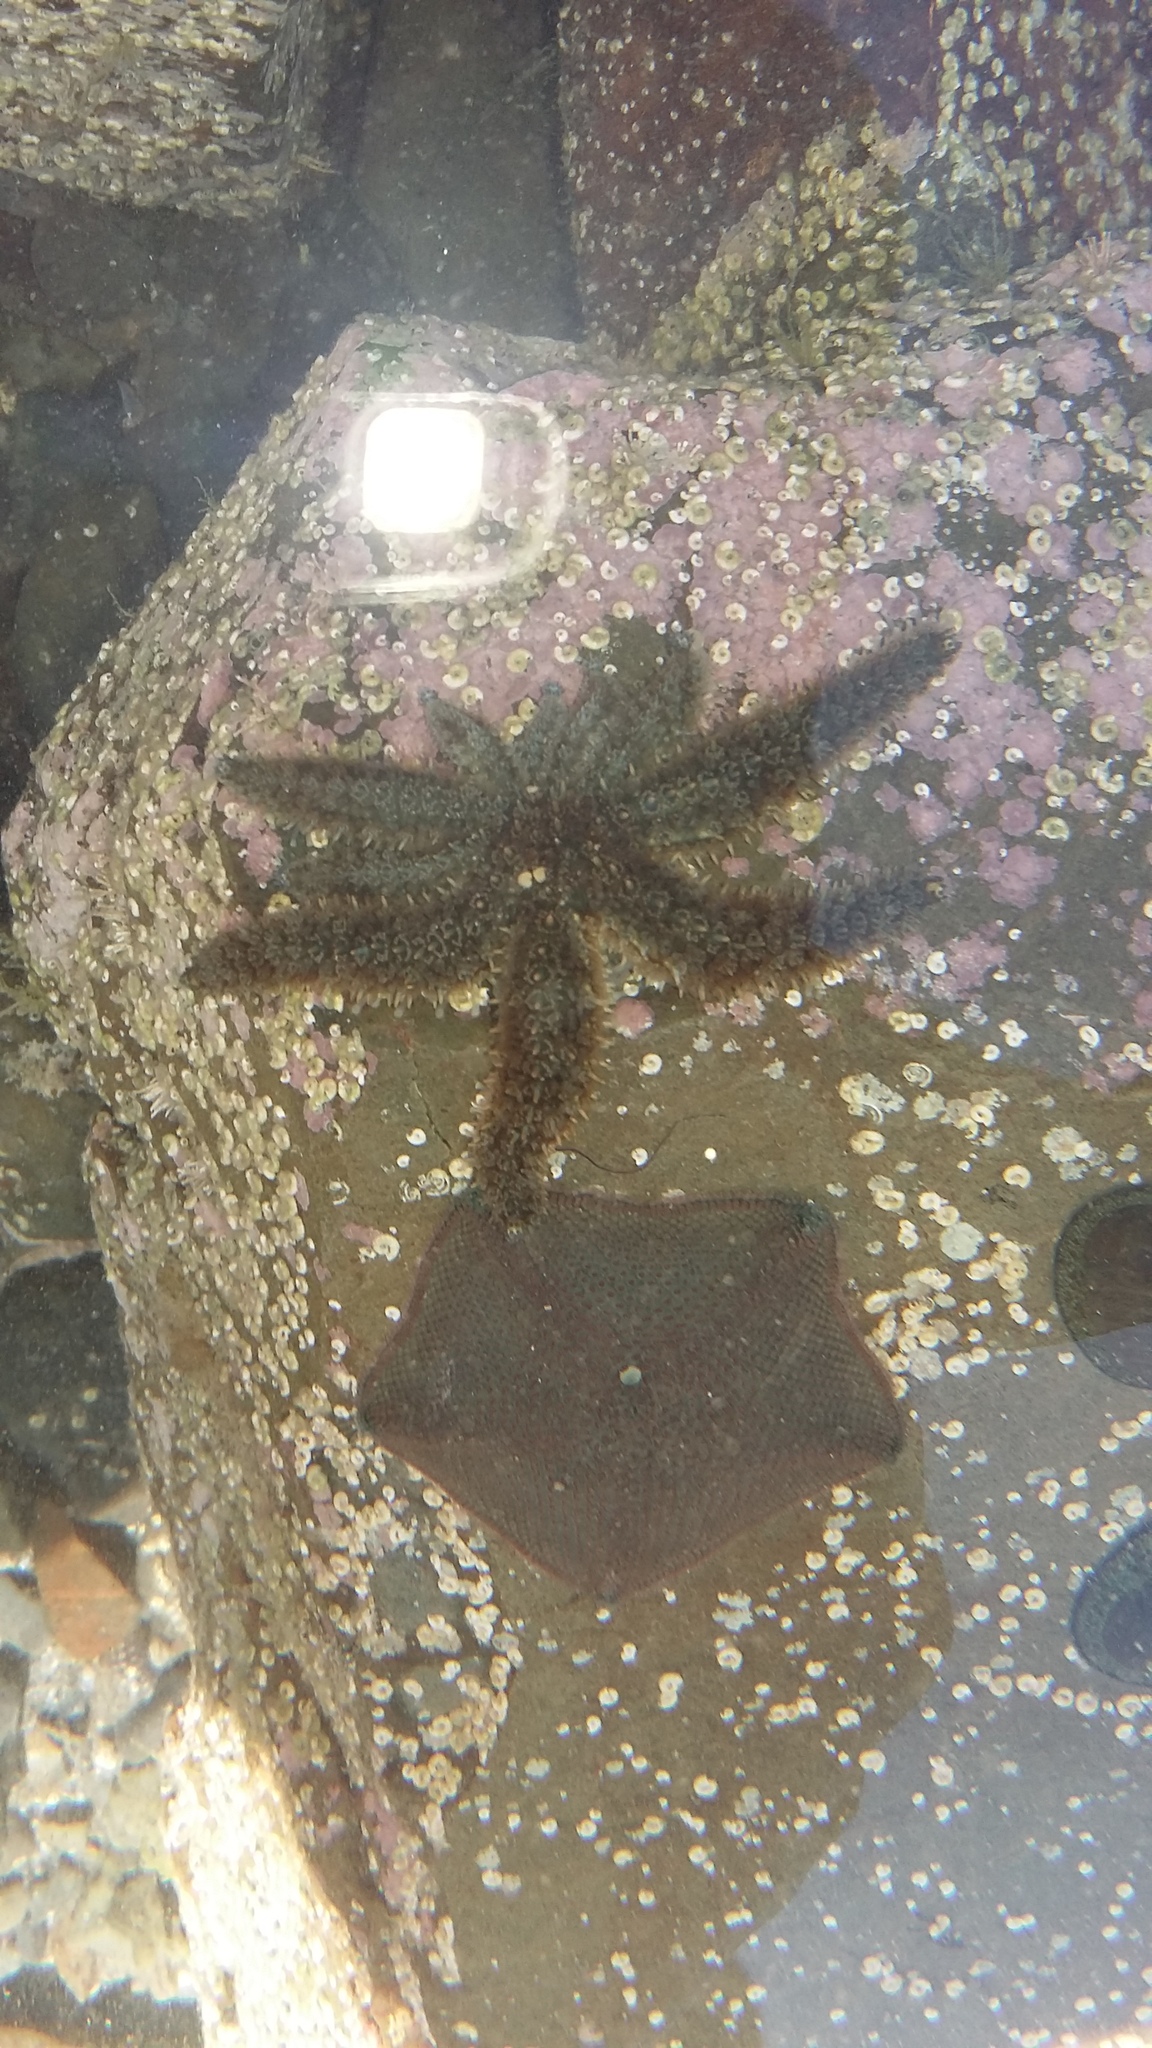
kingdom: Animalia
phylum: Echinodermata
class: Asteroidea
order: Forcipulatida
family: Asteriidae
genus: Coscinasterias
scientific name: Coscinasterias muricata
